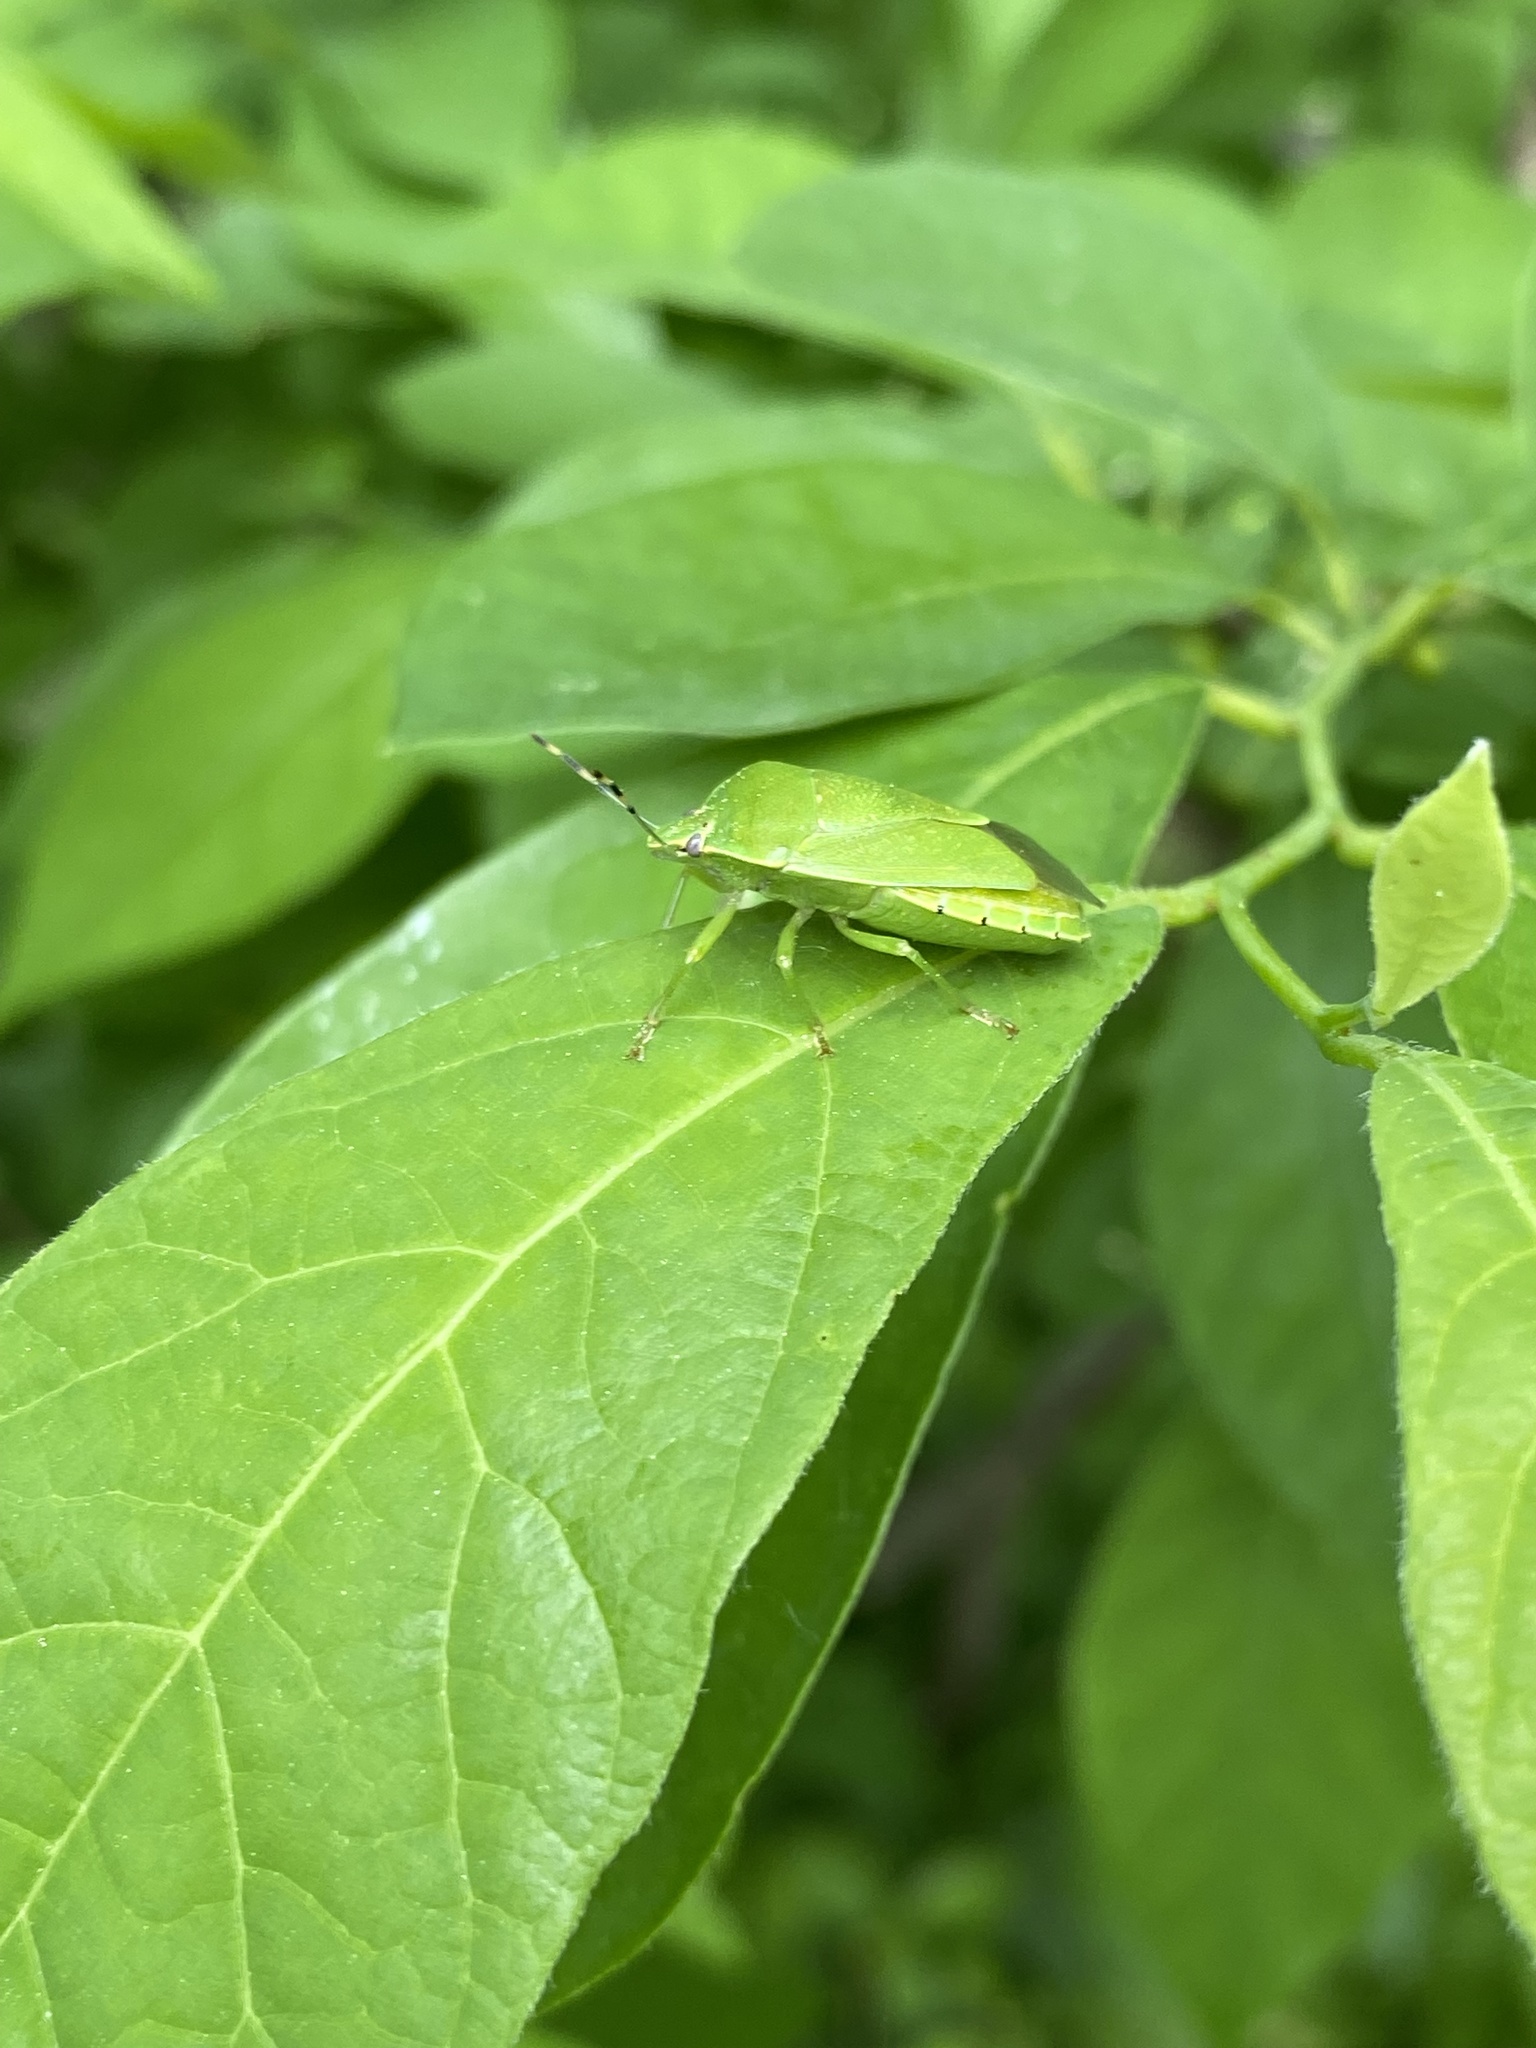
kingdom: Animalia
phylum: Arthropoda
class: Insecta
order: Hemiptera
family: Pentatomidae
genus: Chinavia
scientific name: Chinavia hilaris
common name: Green stink bug
